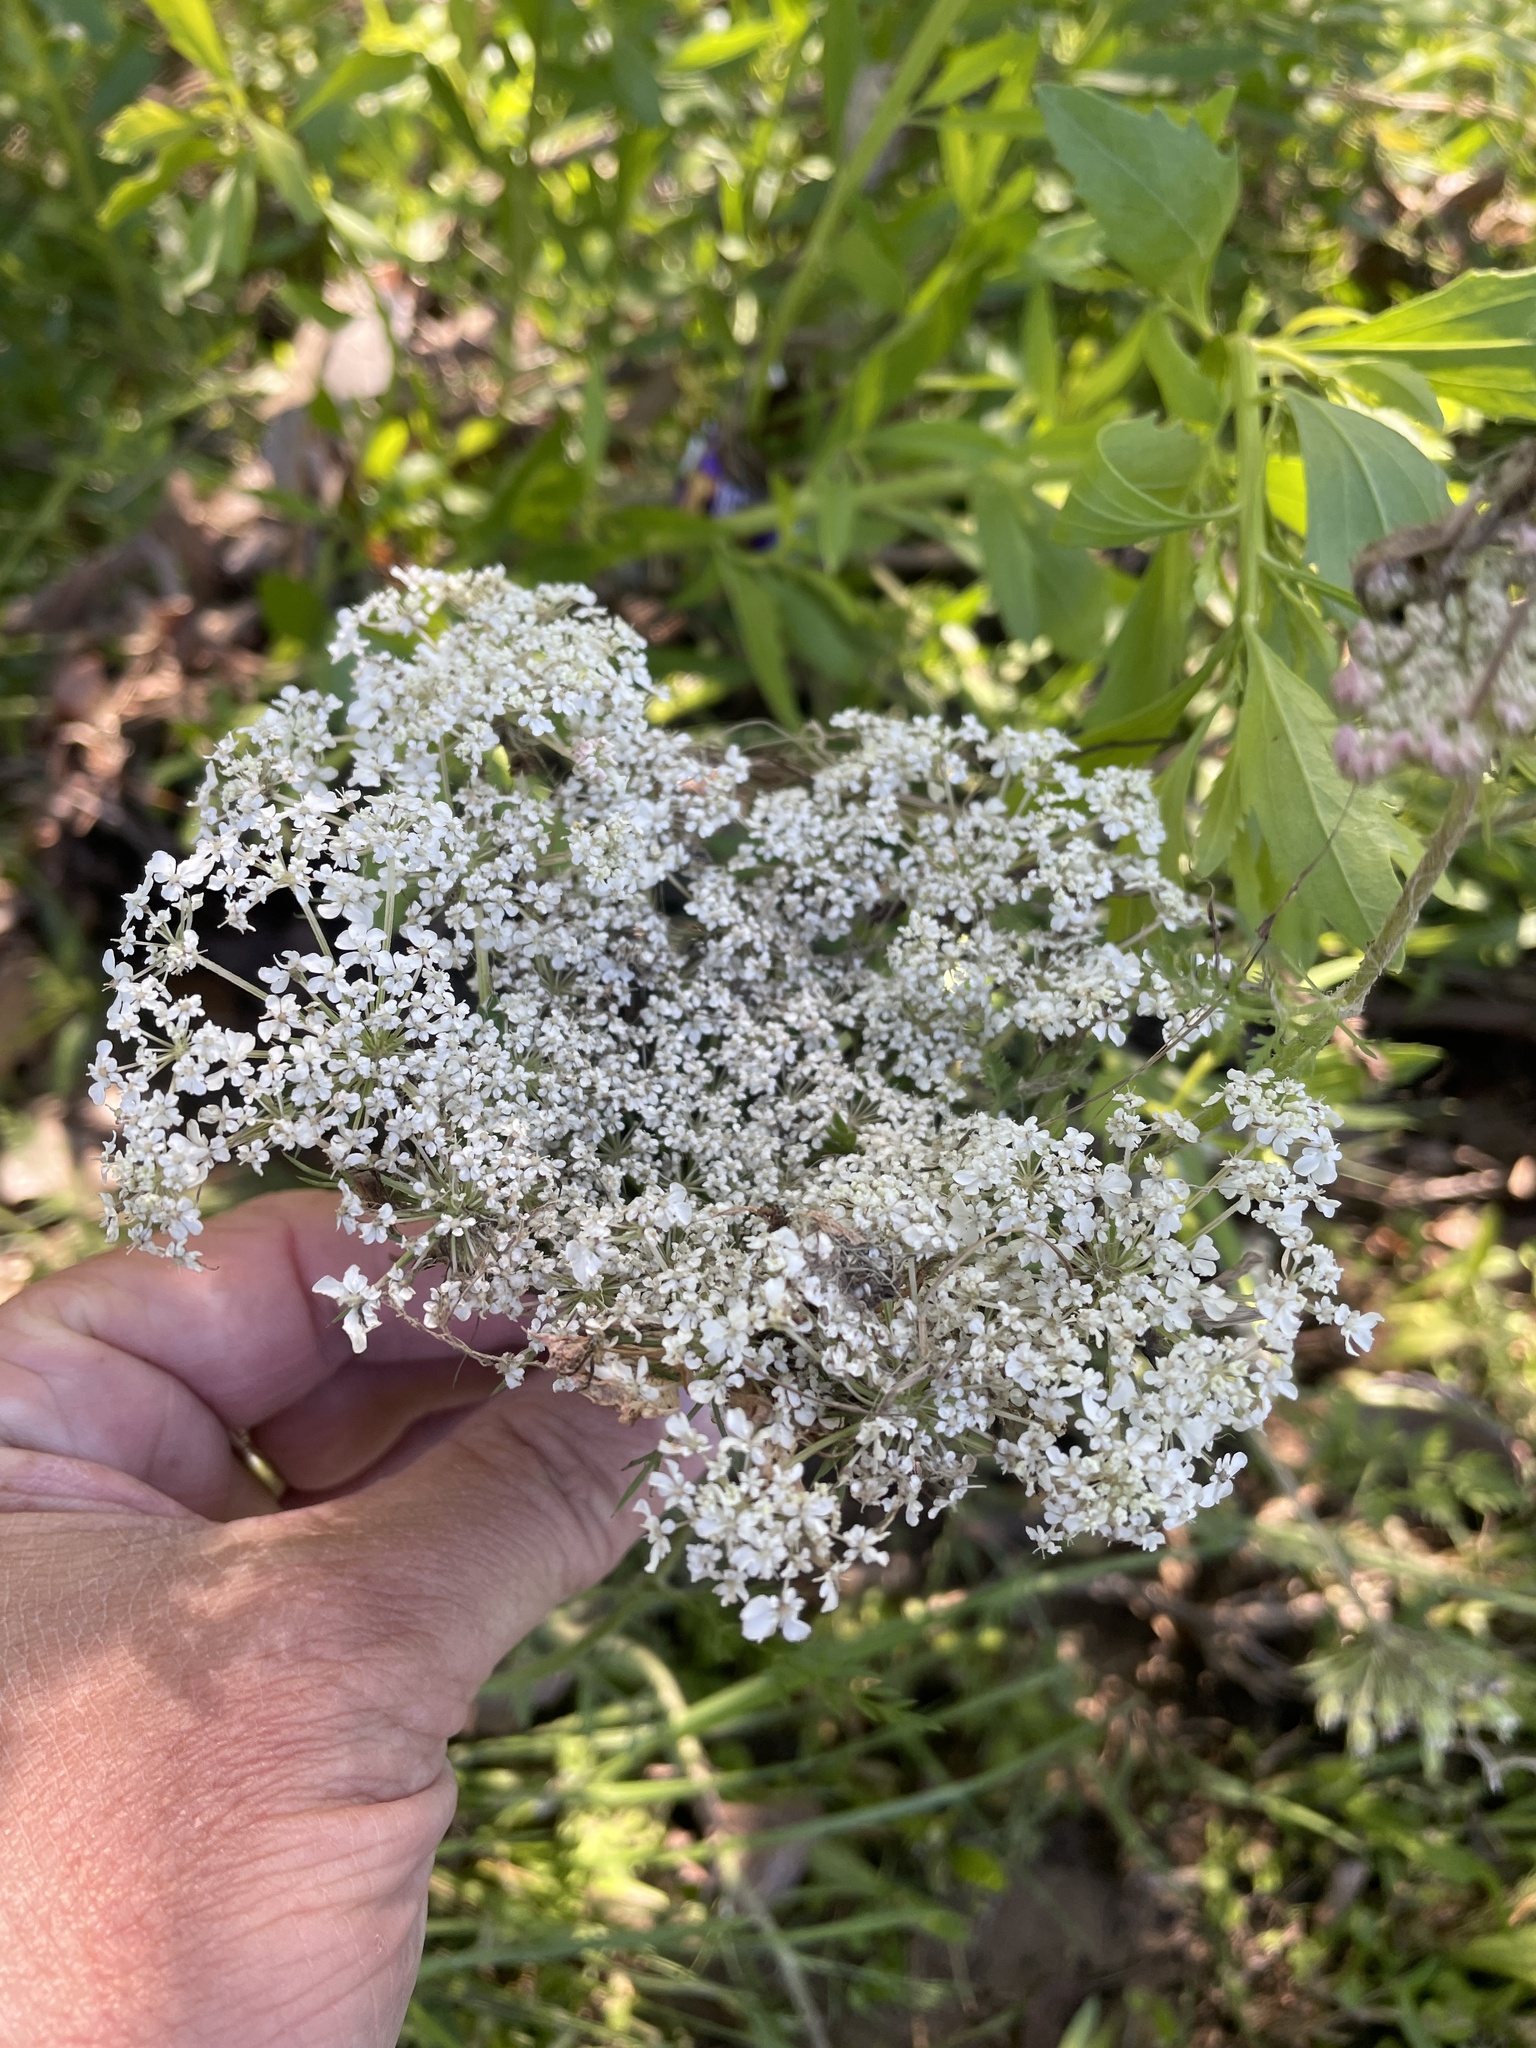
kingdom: Plantae
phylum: Tracheophyta
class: Magnoliopsida
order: Apiales
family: Apiaceae
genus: Daucus
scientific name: Daucus carota
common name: Wild carrot
